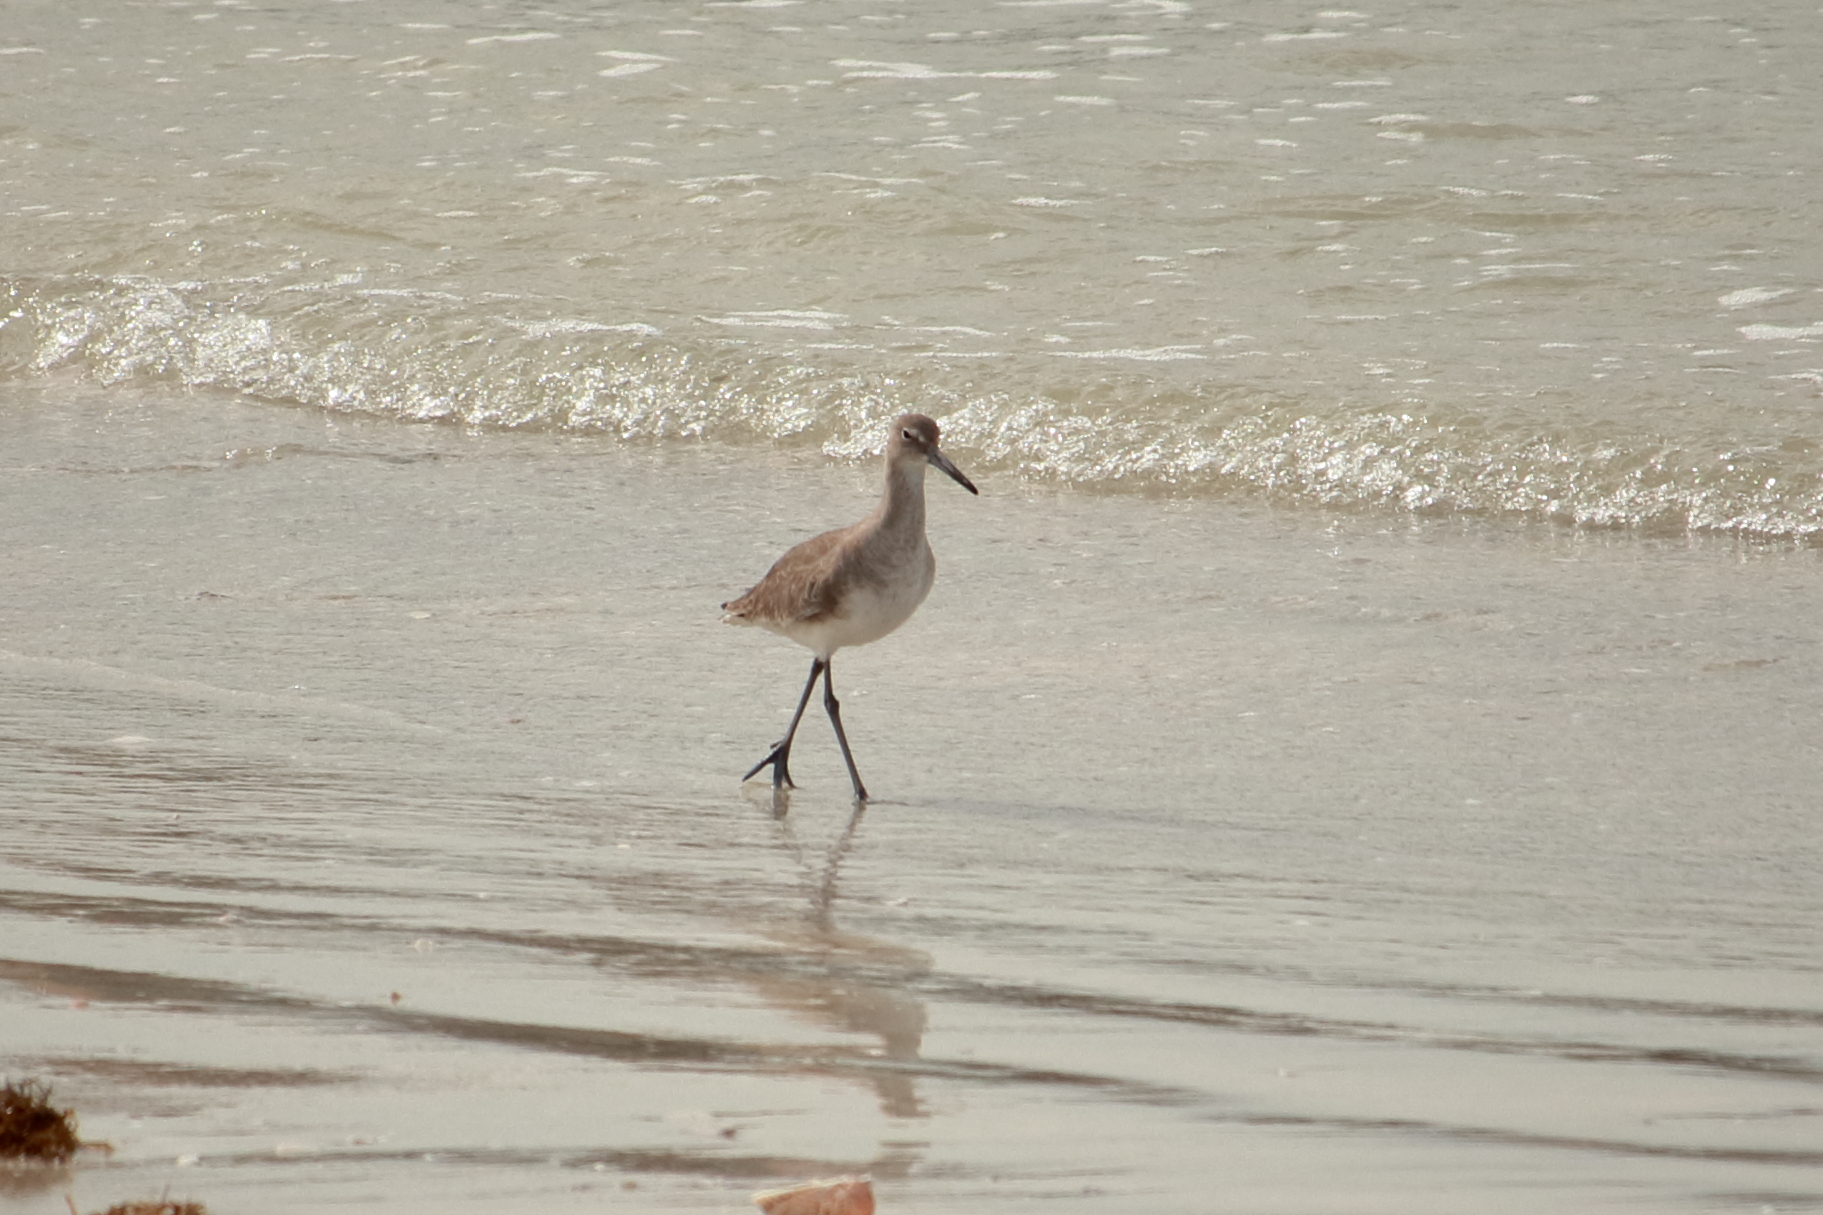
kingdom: Animalia
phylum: Chordata
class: Aves
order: Charadriiformes
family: Scolopacidae
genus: Tringa
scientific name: Tringa semipalmata
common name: Willet
